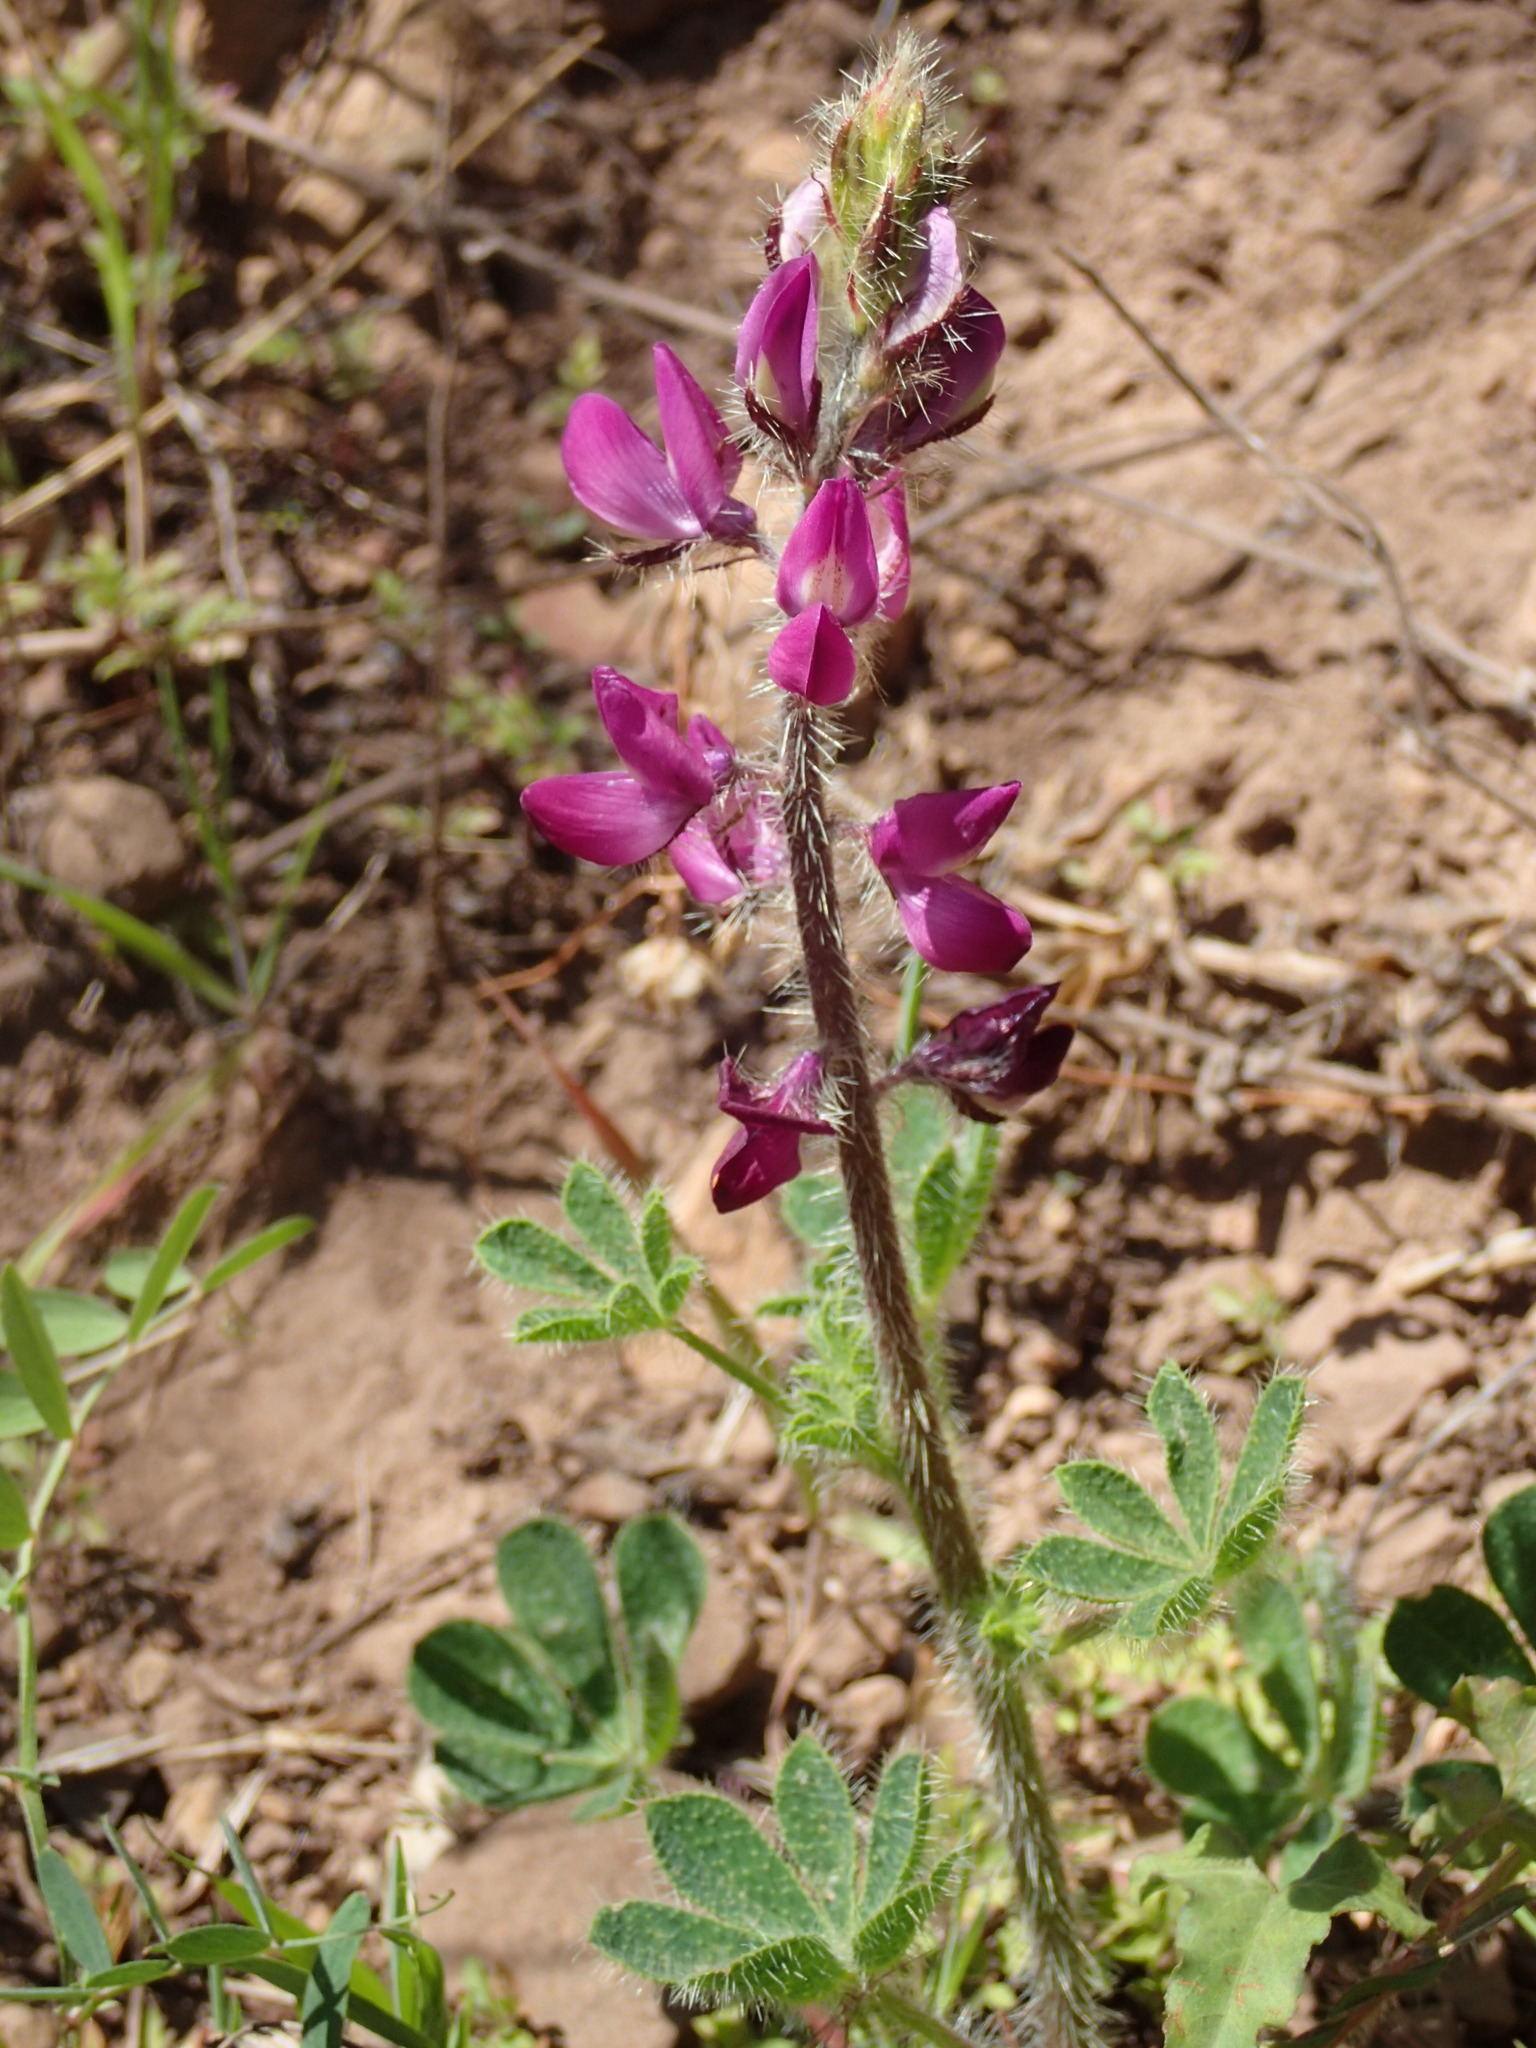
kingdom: Plantae
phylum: Tracheophyta
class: Magnoliopsida
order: Fabales
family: Fabaceae
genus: Lupinus
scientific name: Lupinus hirsutissimus
